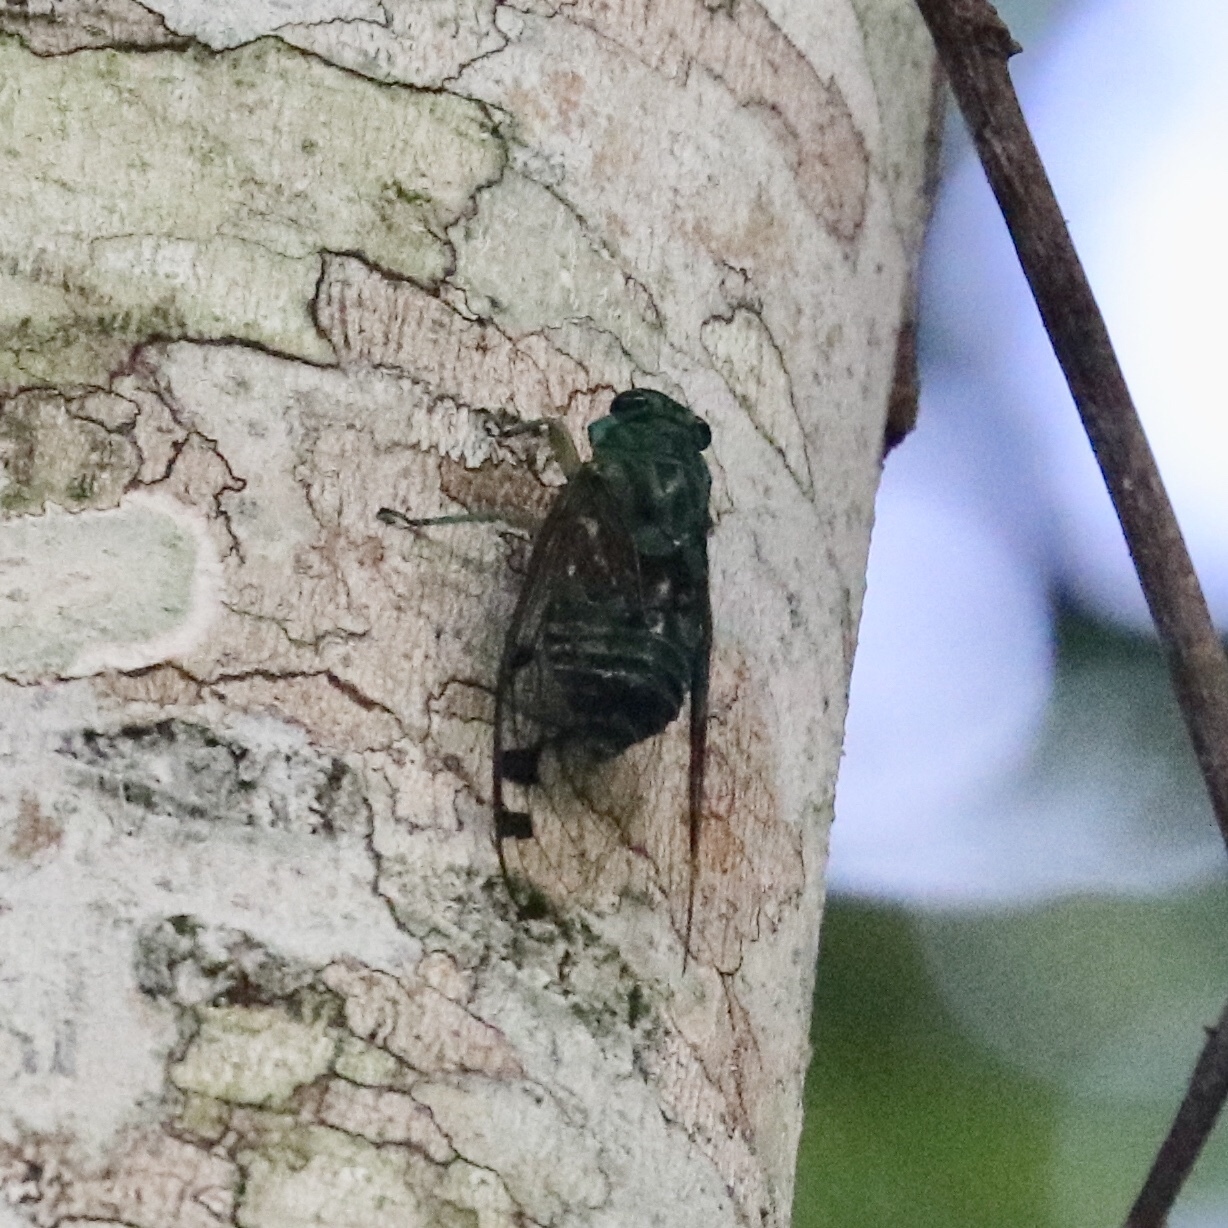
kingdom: Animalia
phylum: Arthropoda
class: Insecta
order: Hemiptera
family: Cicadidae
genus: Zammara
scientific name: Zammara smaragdula
